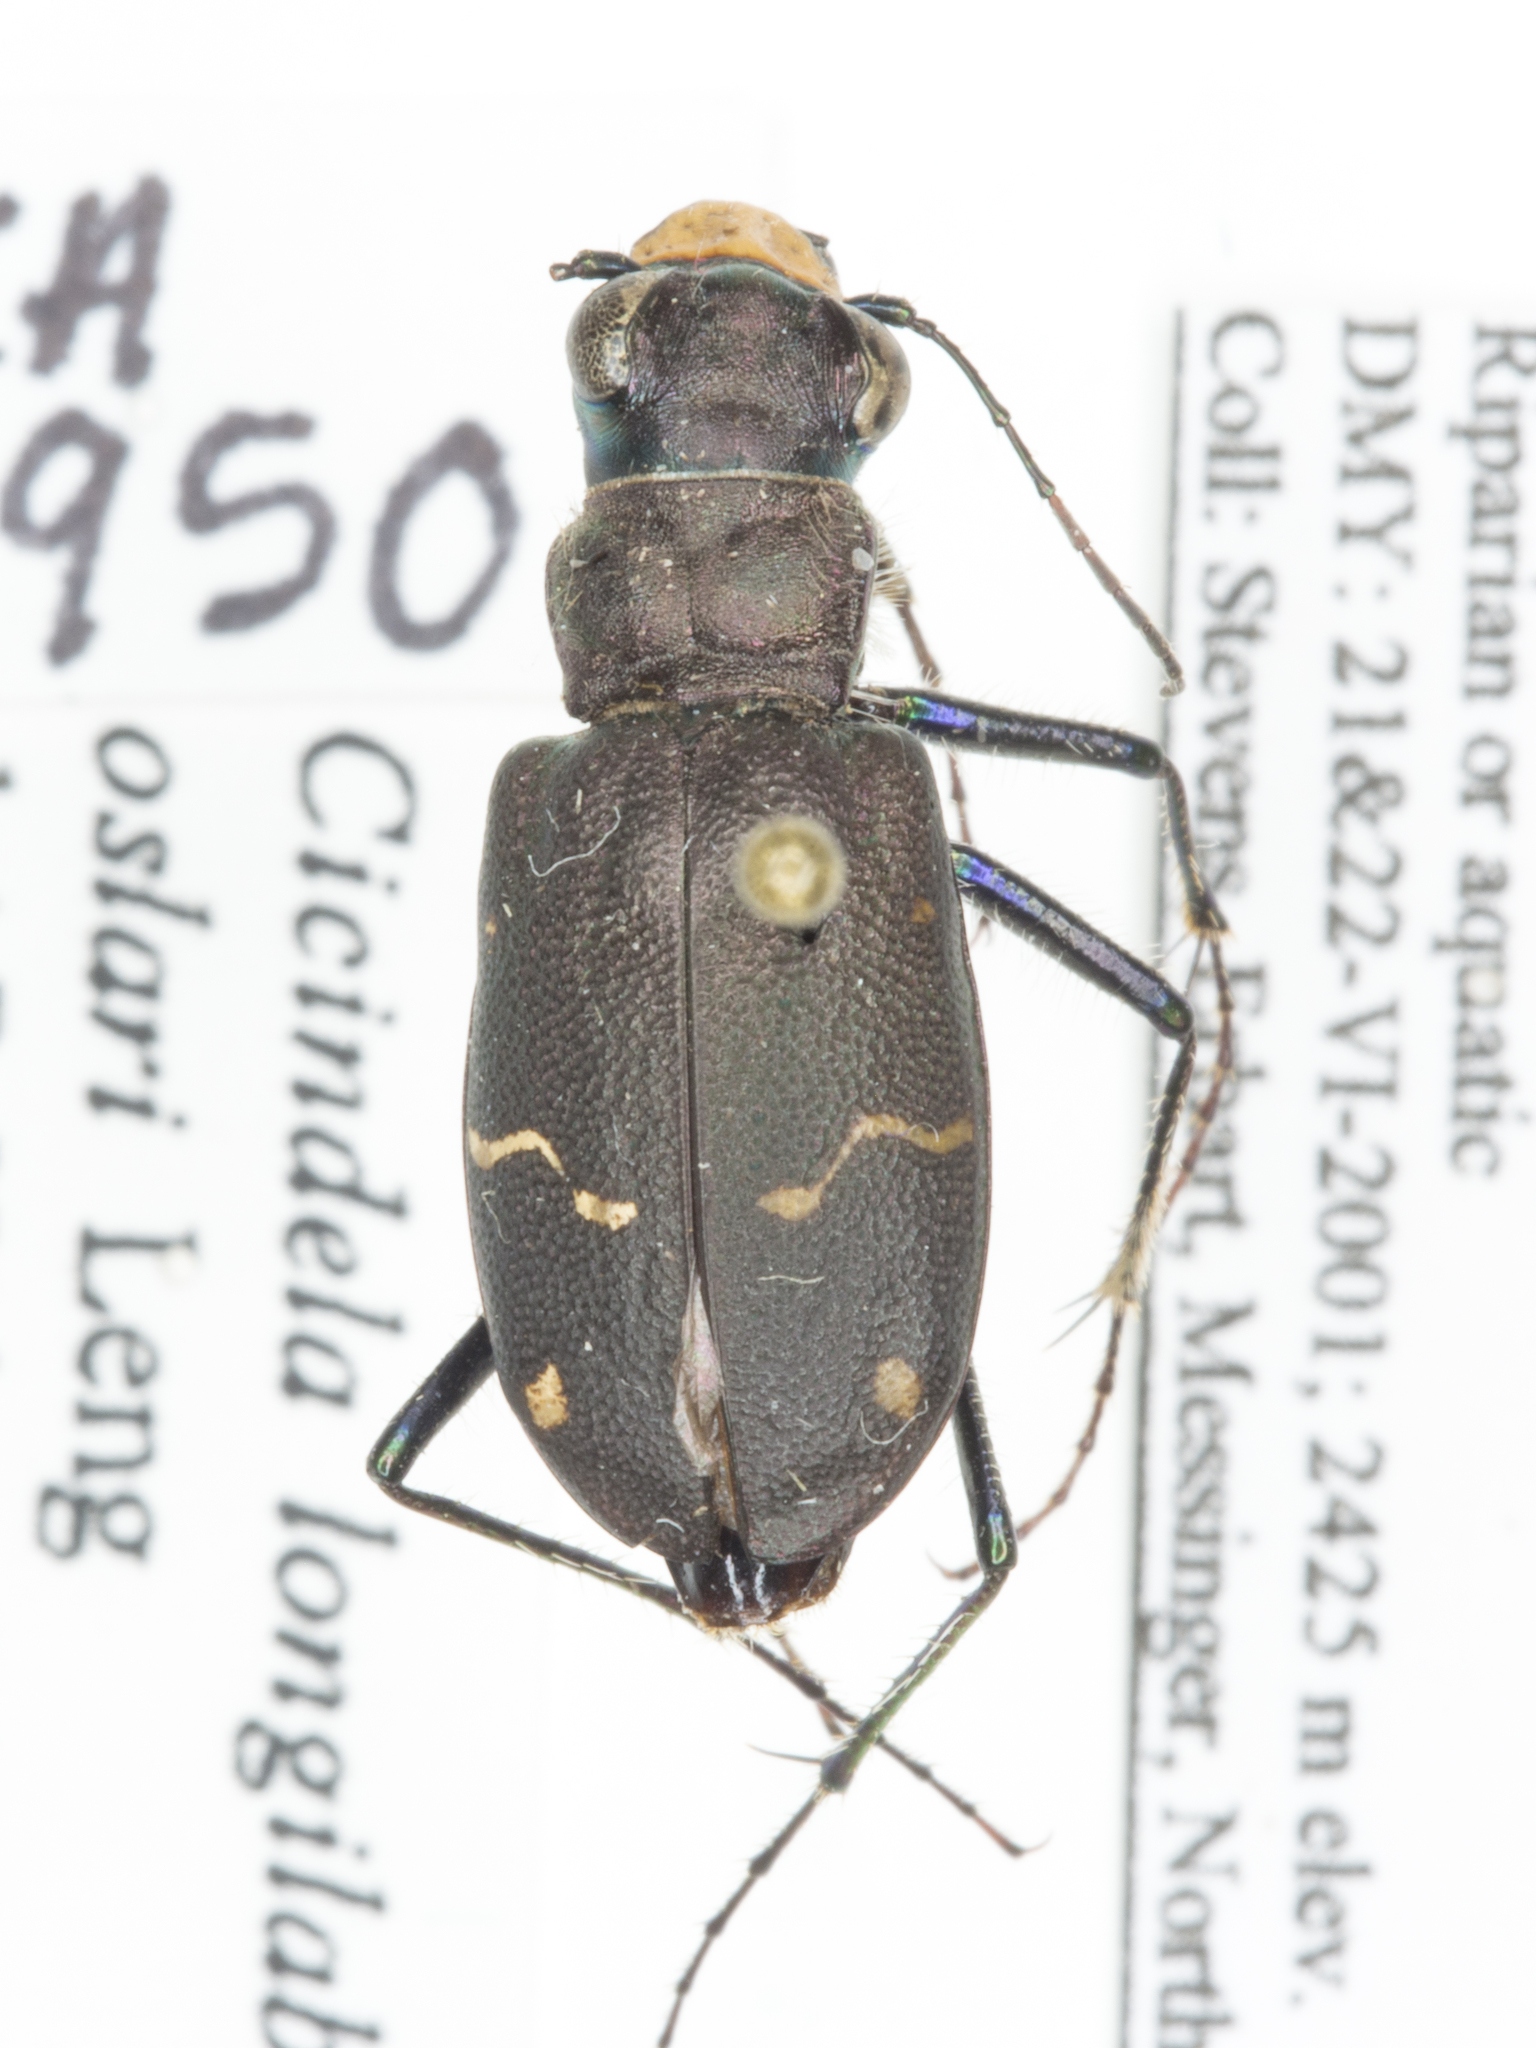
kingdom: Animalia
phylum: Arthropoda
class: Insecta
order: Coleoptera
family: Carabidae
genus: Cicindela
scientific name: Cicindela longilabris
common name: Boreal long-lipped tiger beetle
